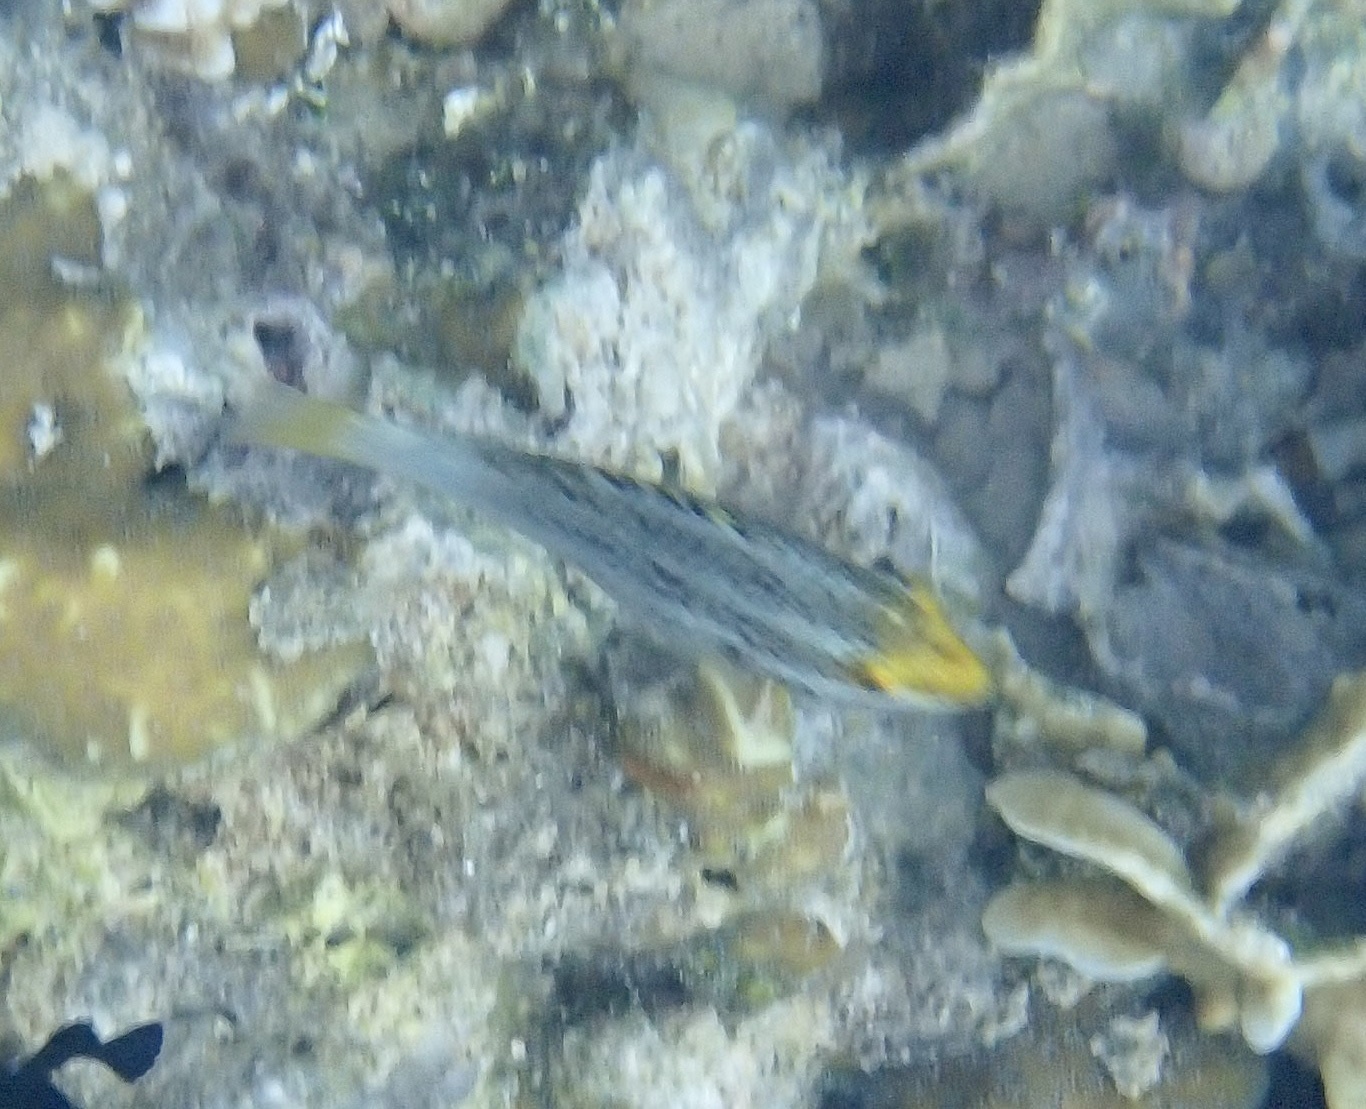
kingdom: Animalia
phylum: Chordata
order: Perciformes
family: Scaridae
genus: Scarus
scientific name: Scarus prasiognathos
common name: Singapore parrotfish
